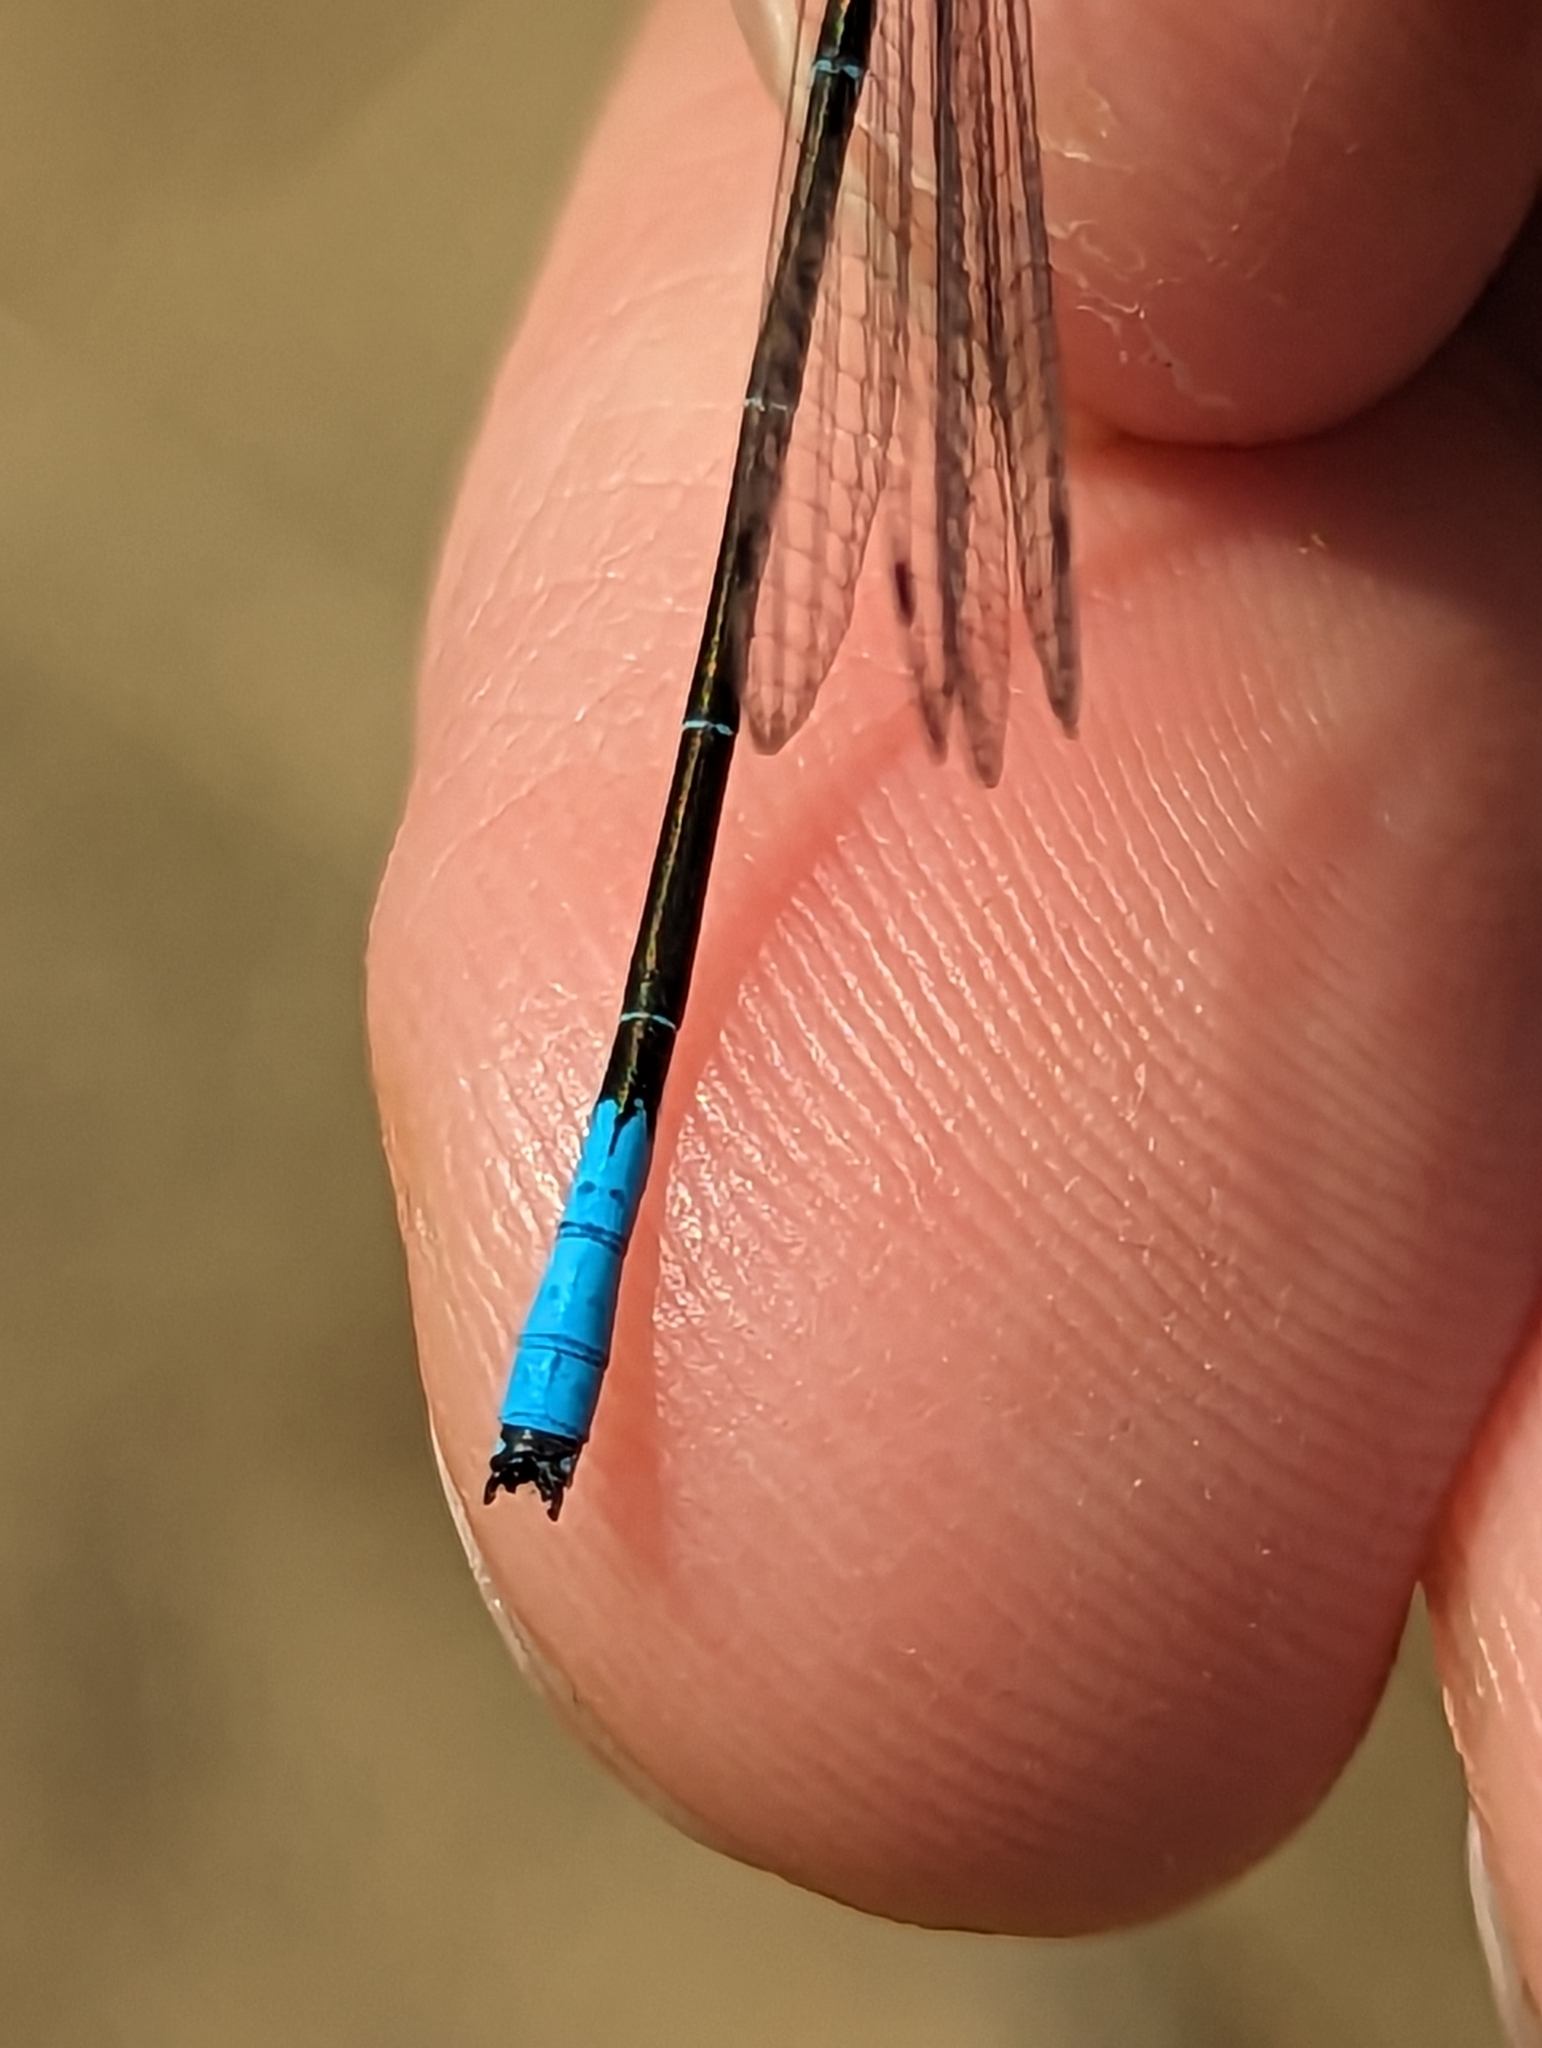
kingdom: Animalia
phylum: Arthropoda
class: Insecta
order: Odonata
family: Coenagrionidae
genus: Enallagma
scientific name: Enallagma aspersum
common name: Azure bluet
